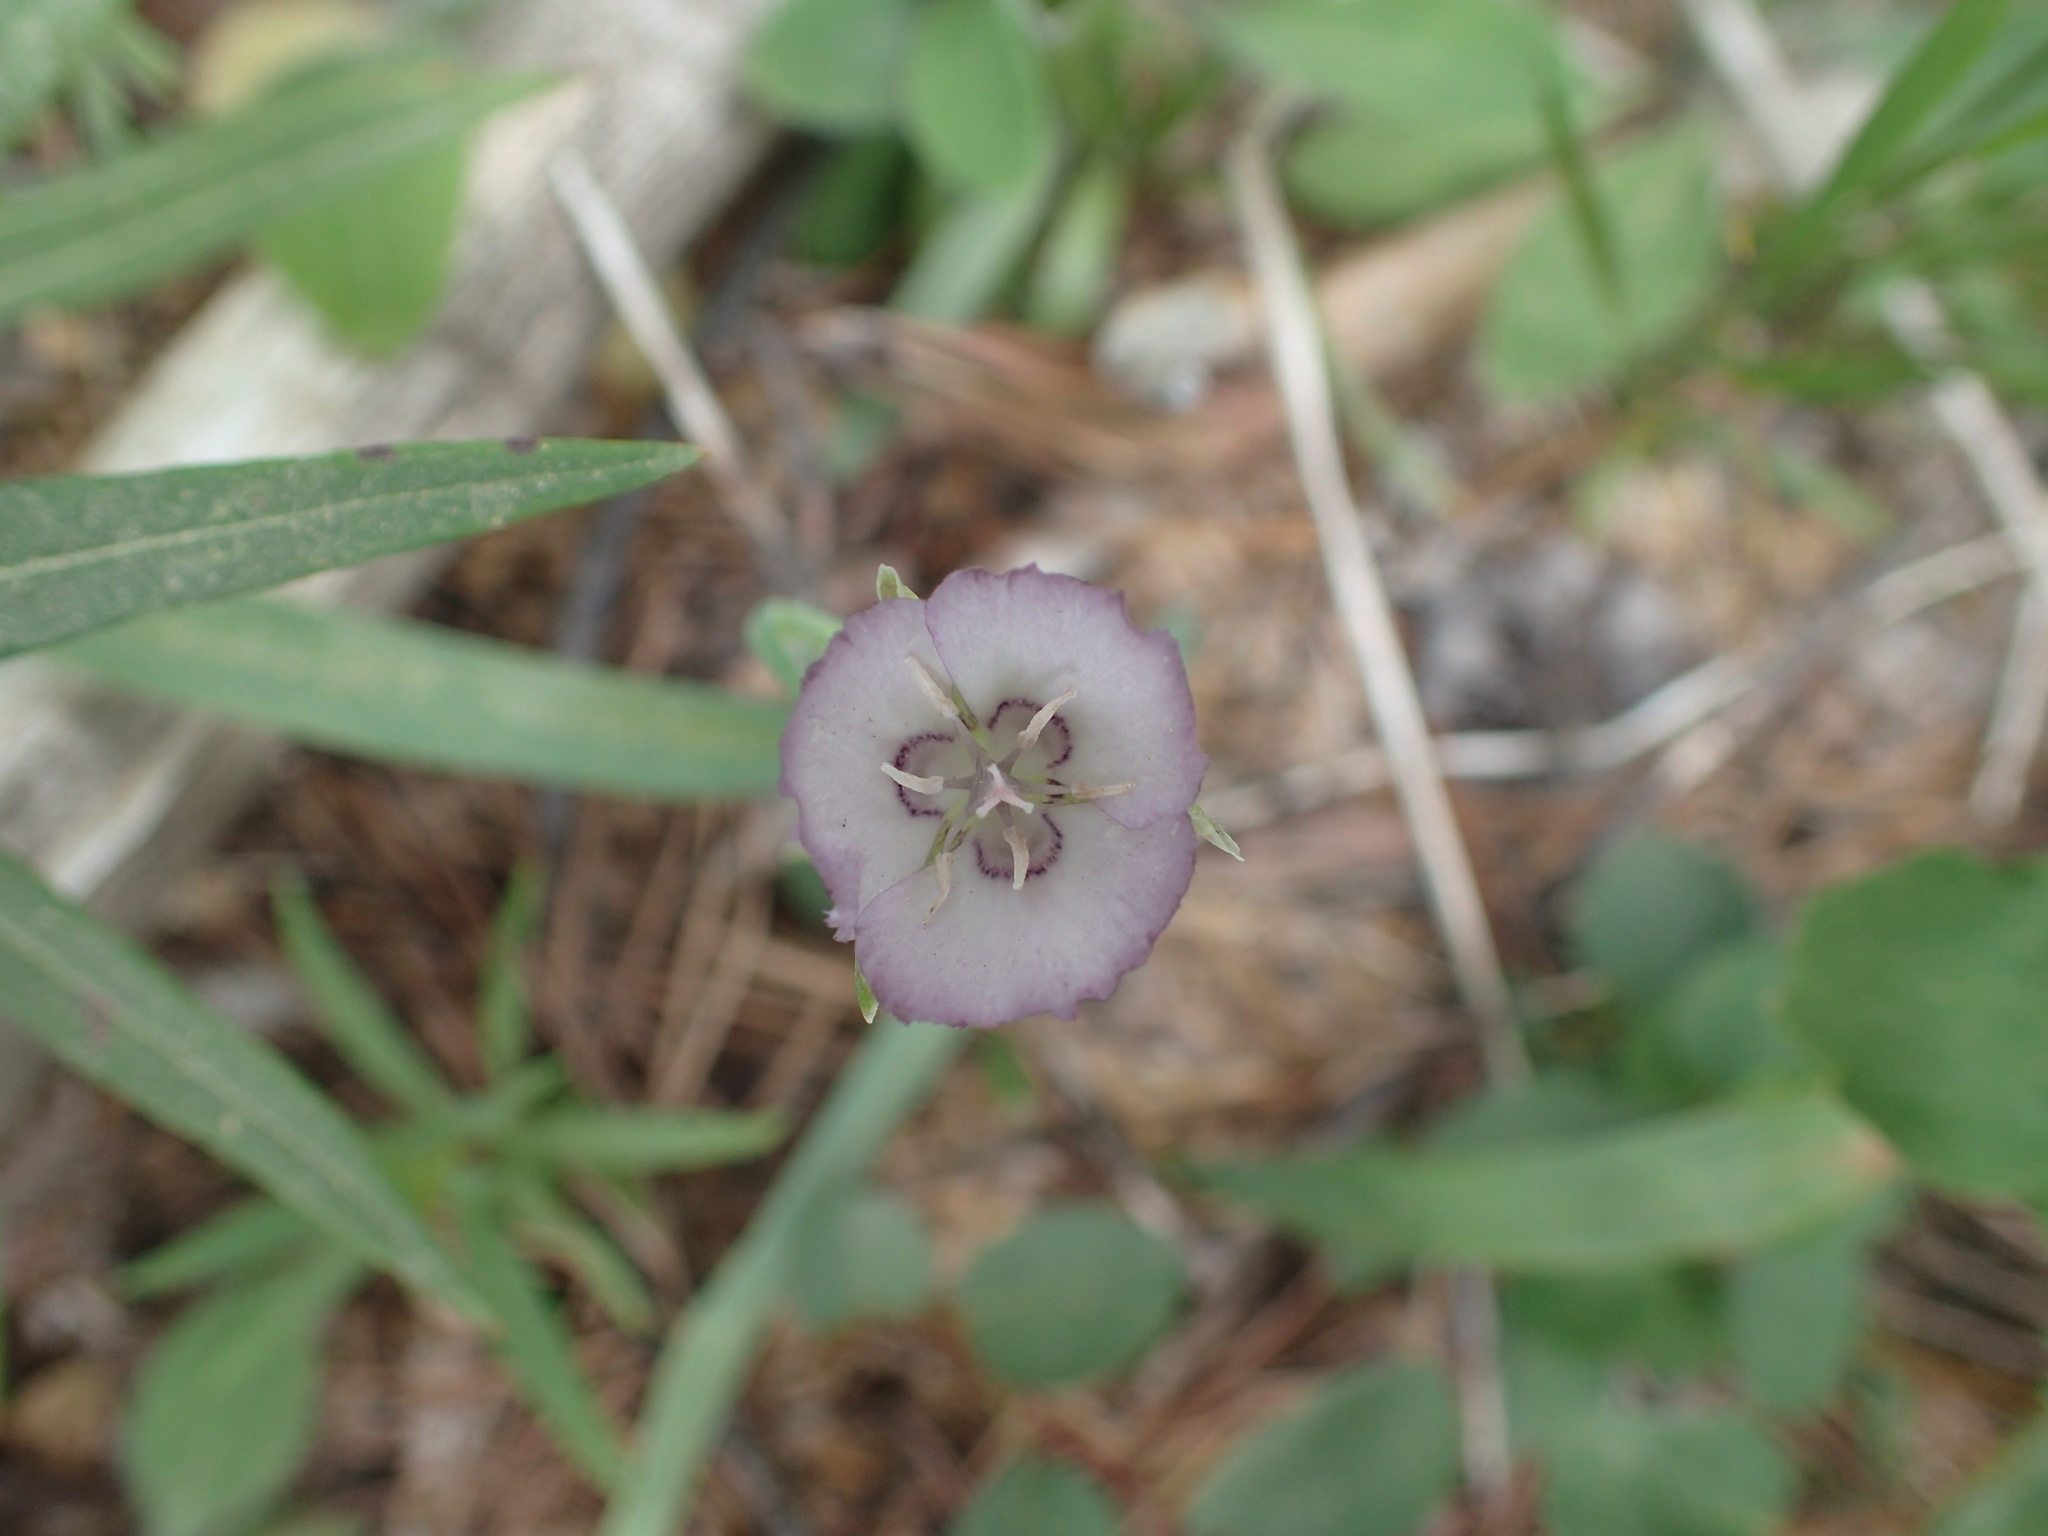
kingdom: Plantae
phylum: Tracheophyta
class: Liliopsida
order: Liliales
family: Liliaceae
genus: Calochortus
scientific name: Calochortus nudus
